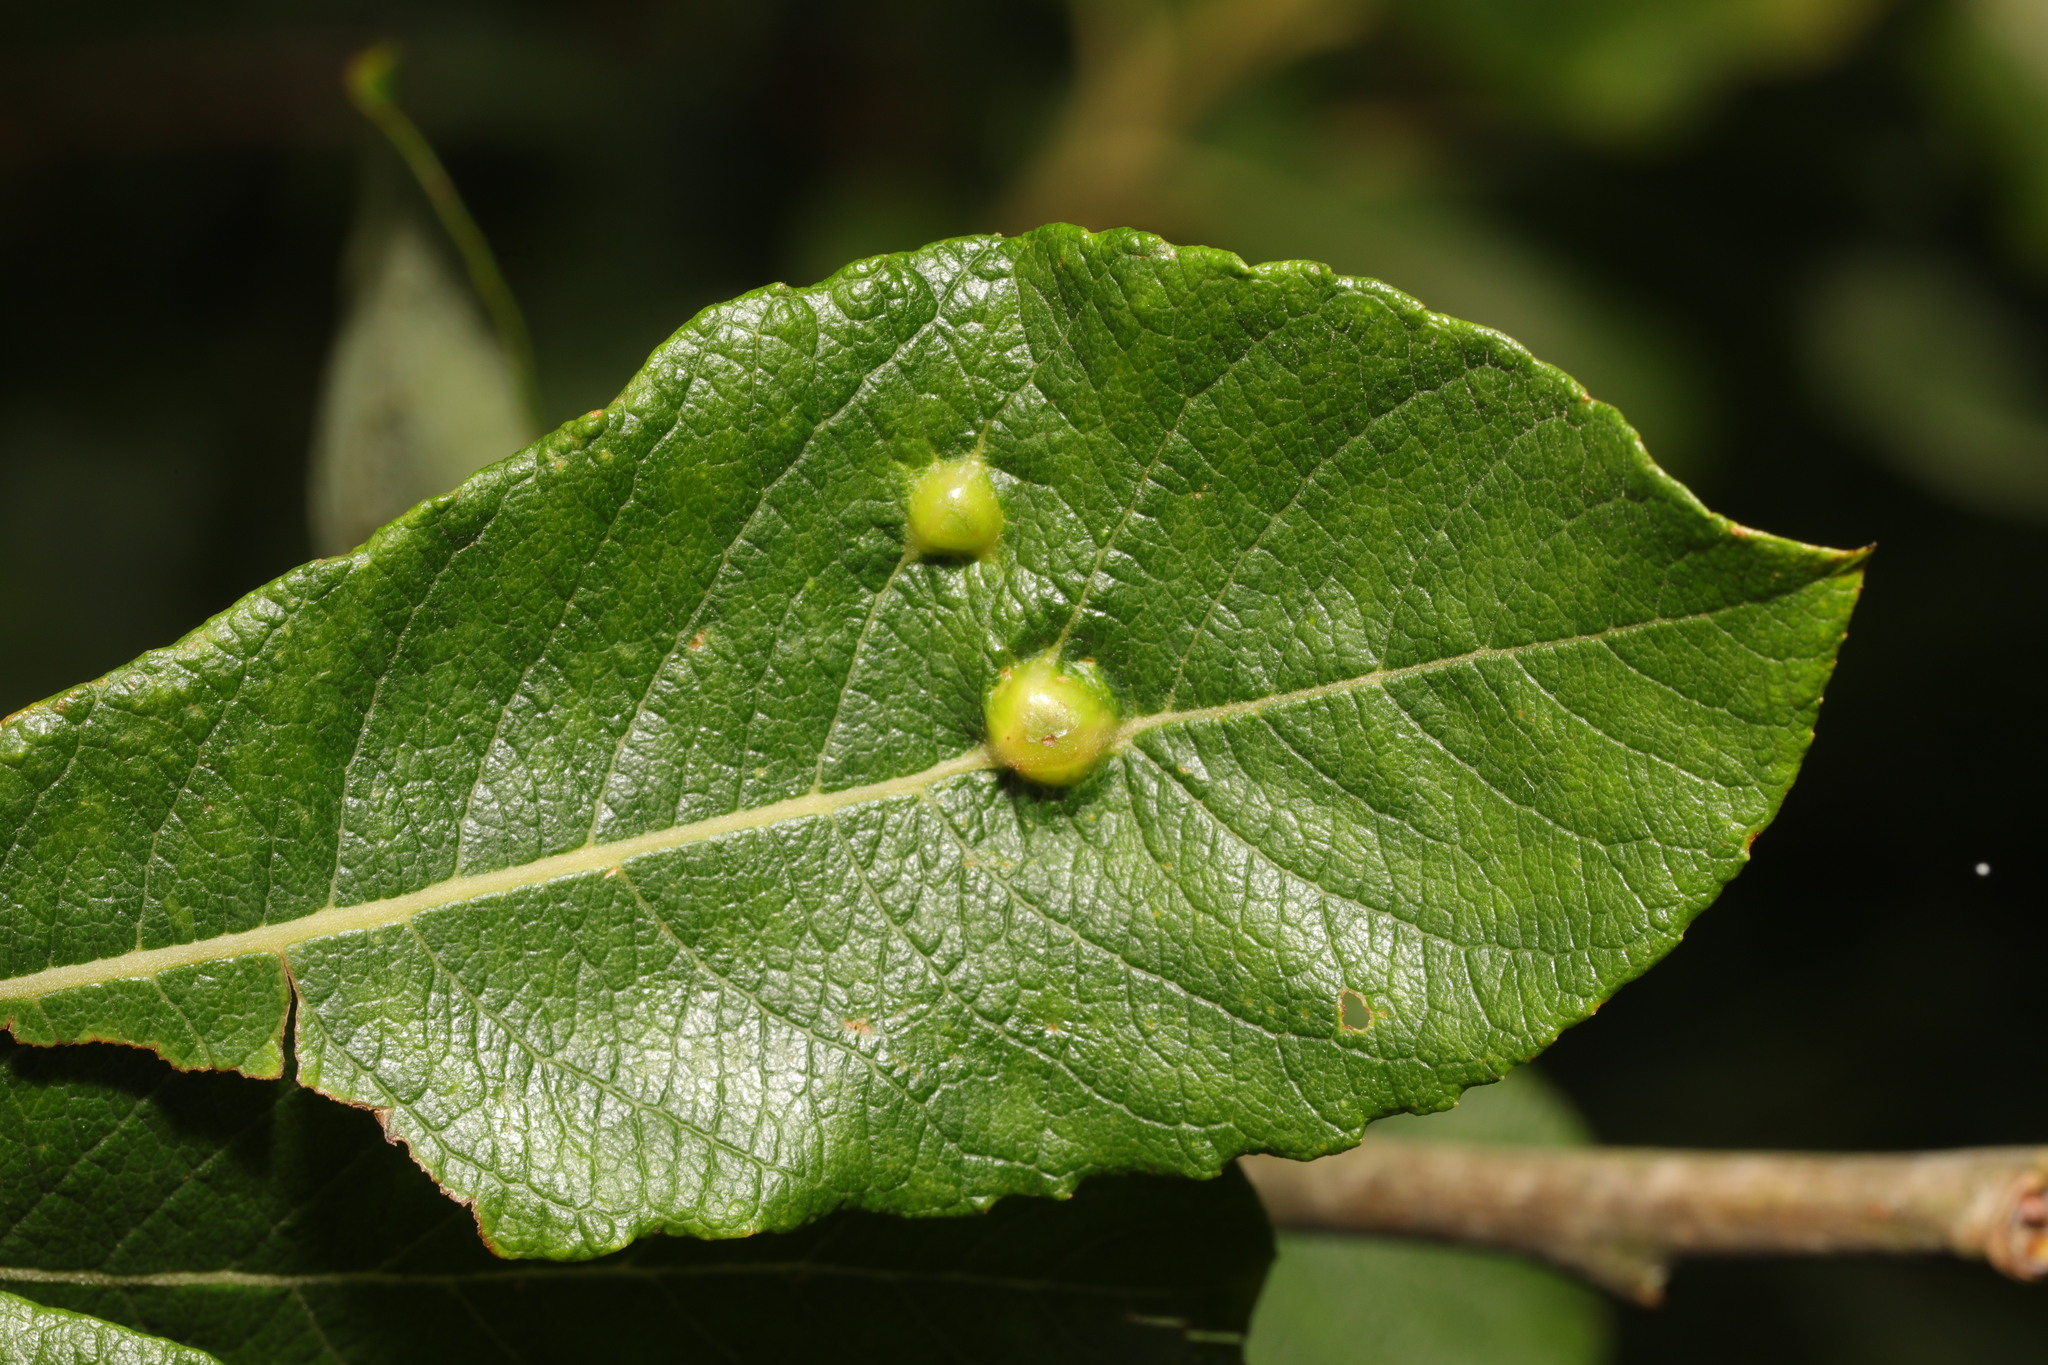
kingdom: Animalia
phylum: Arthropoda
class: Insecta
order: Diptera
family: Cecidomyiidae
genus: Iteomyia
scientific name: Iteomyia major
